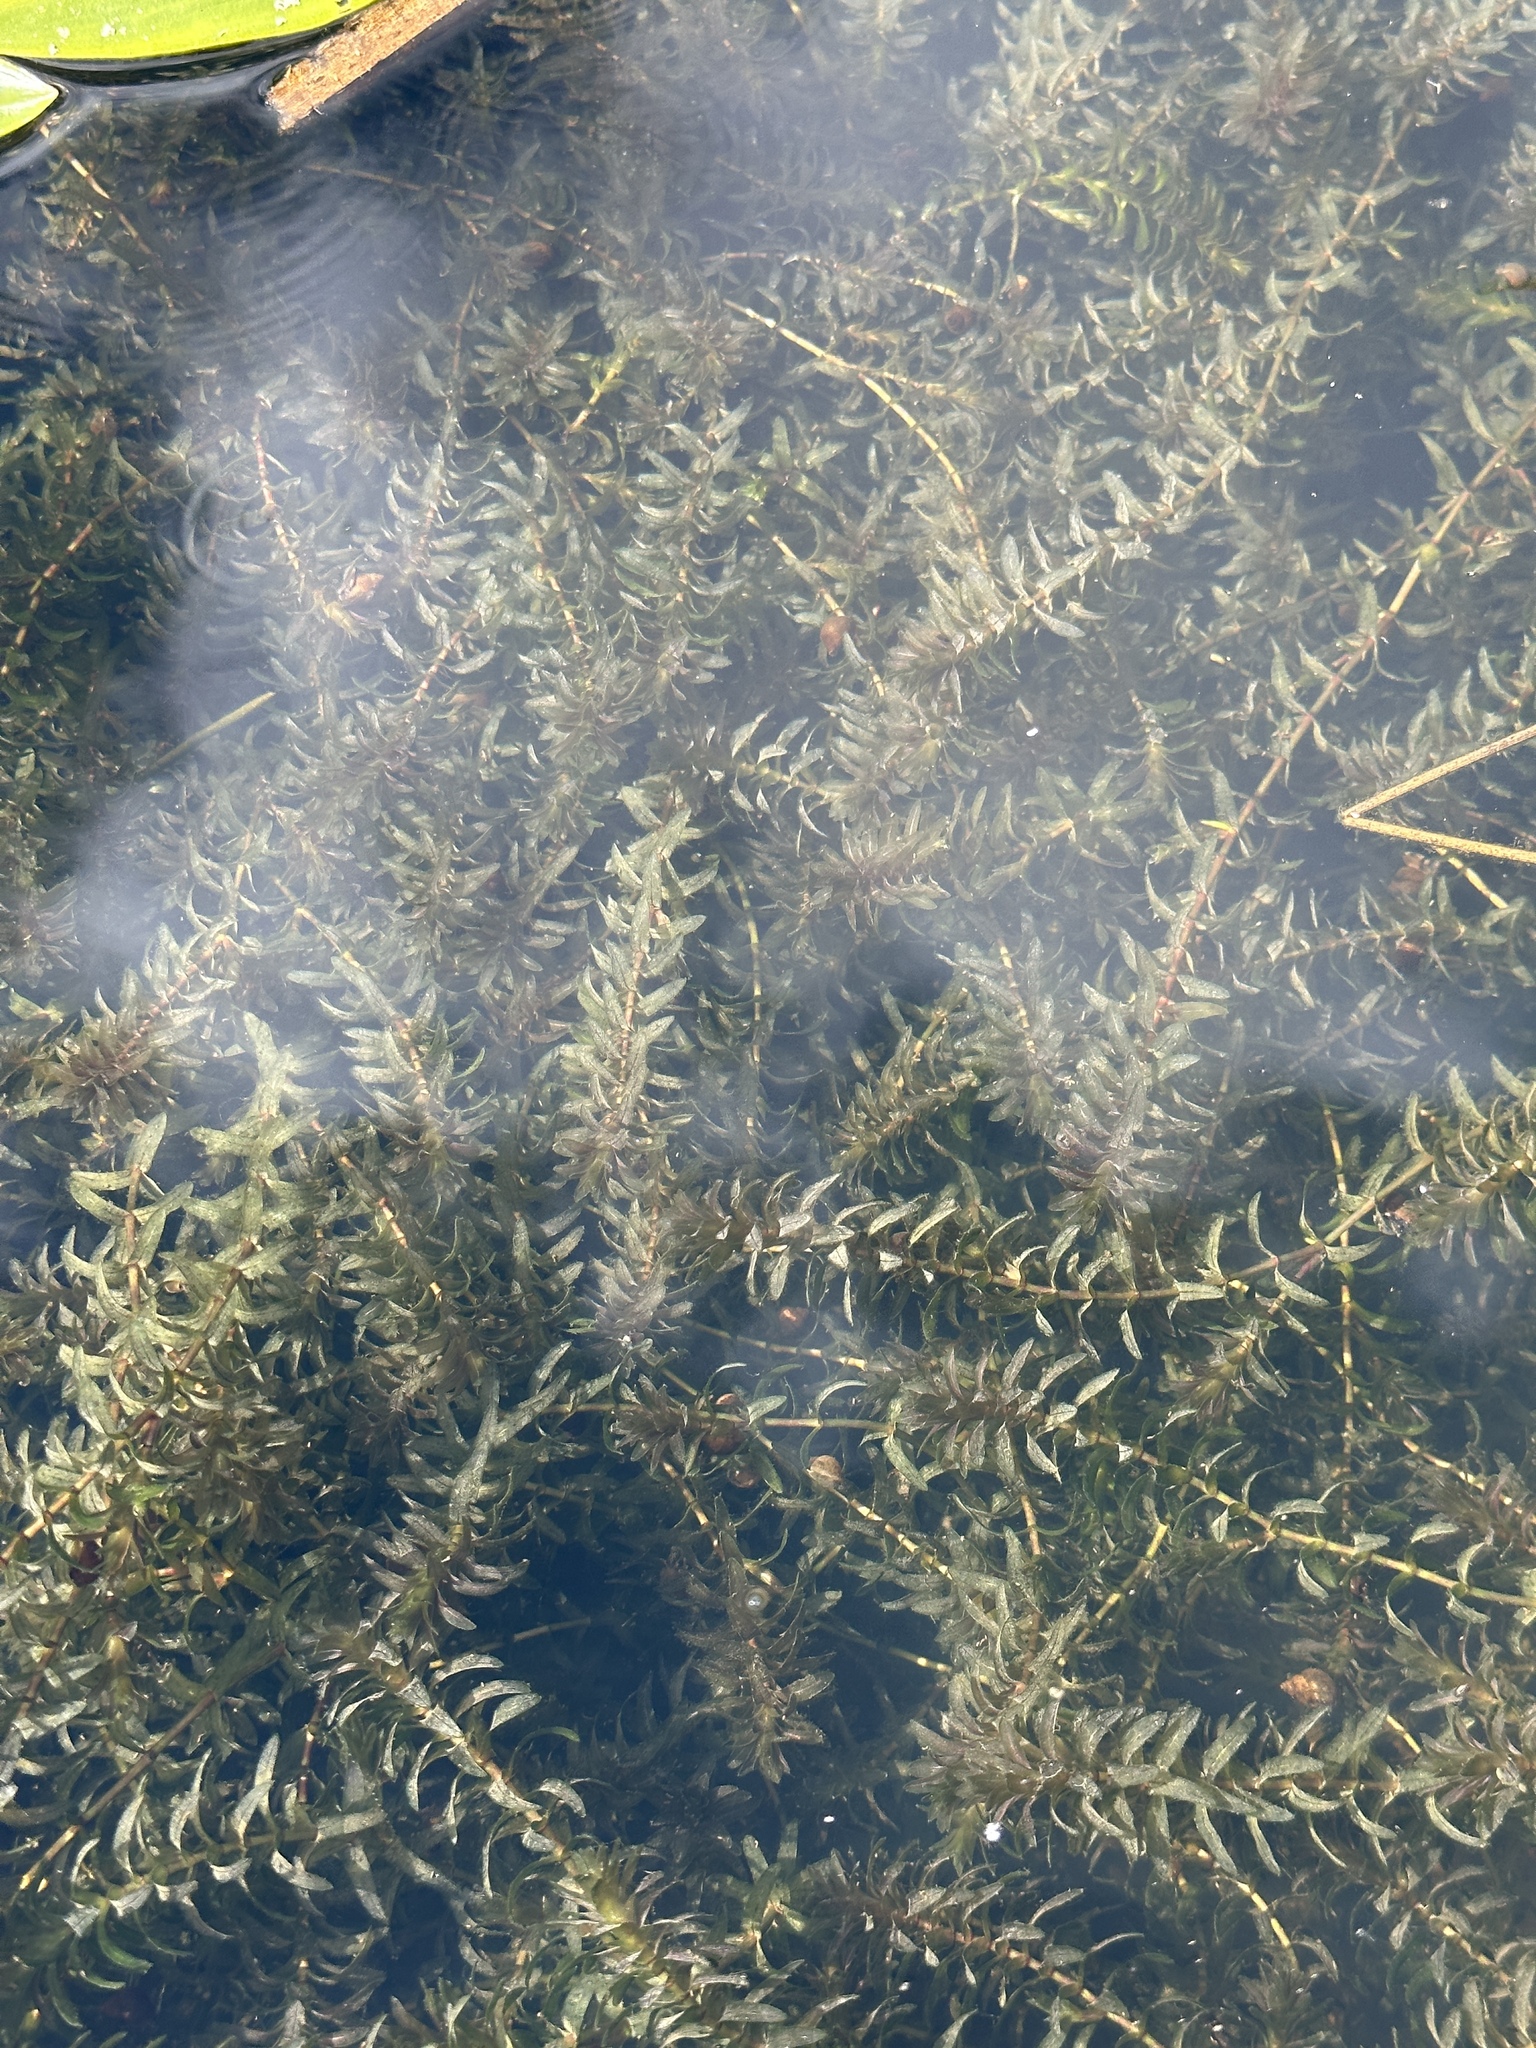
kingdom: Plantae
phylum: Tracheophyta
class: Liliopsida
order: Alismatales
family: Hydrocharitaceae
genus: Elodea
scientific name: Elodea canadensis
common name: Canadian waterweed
